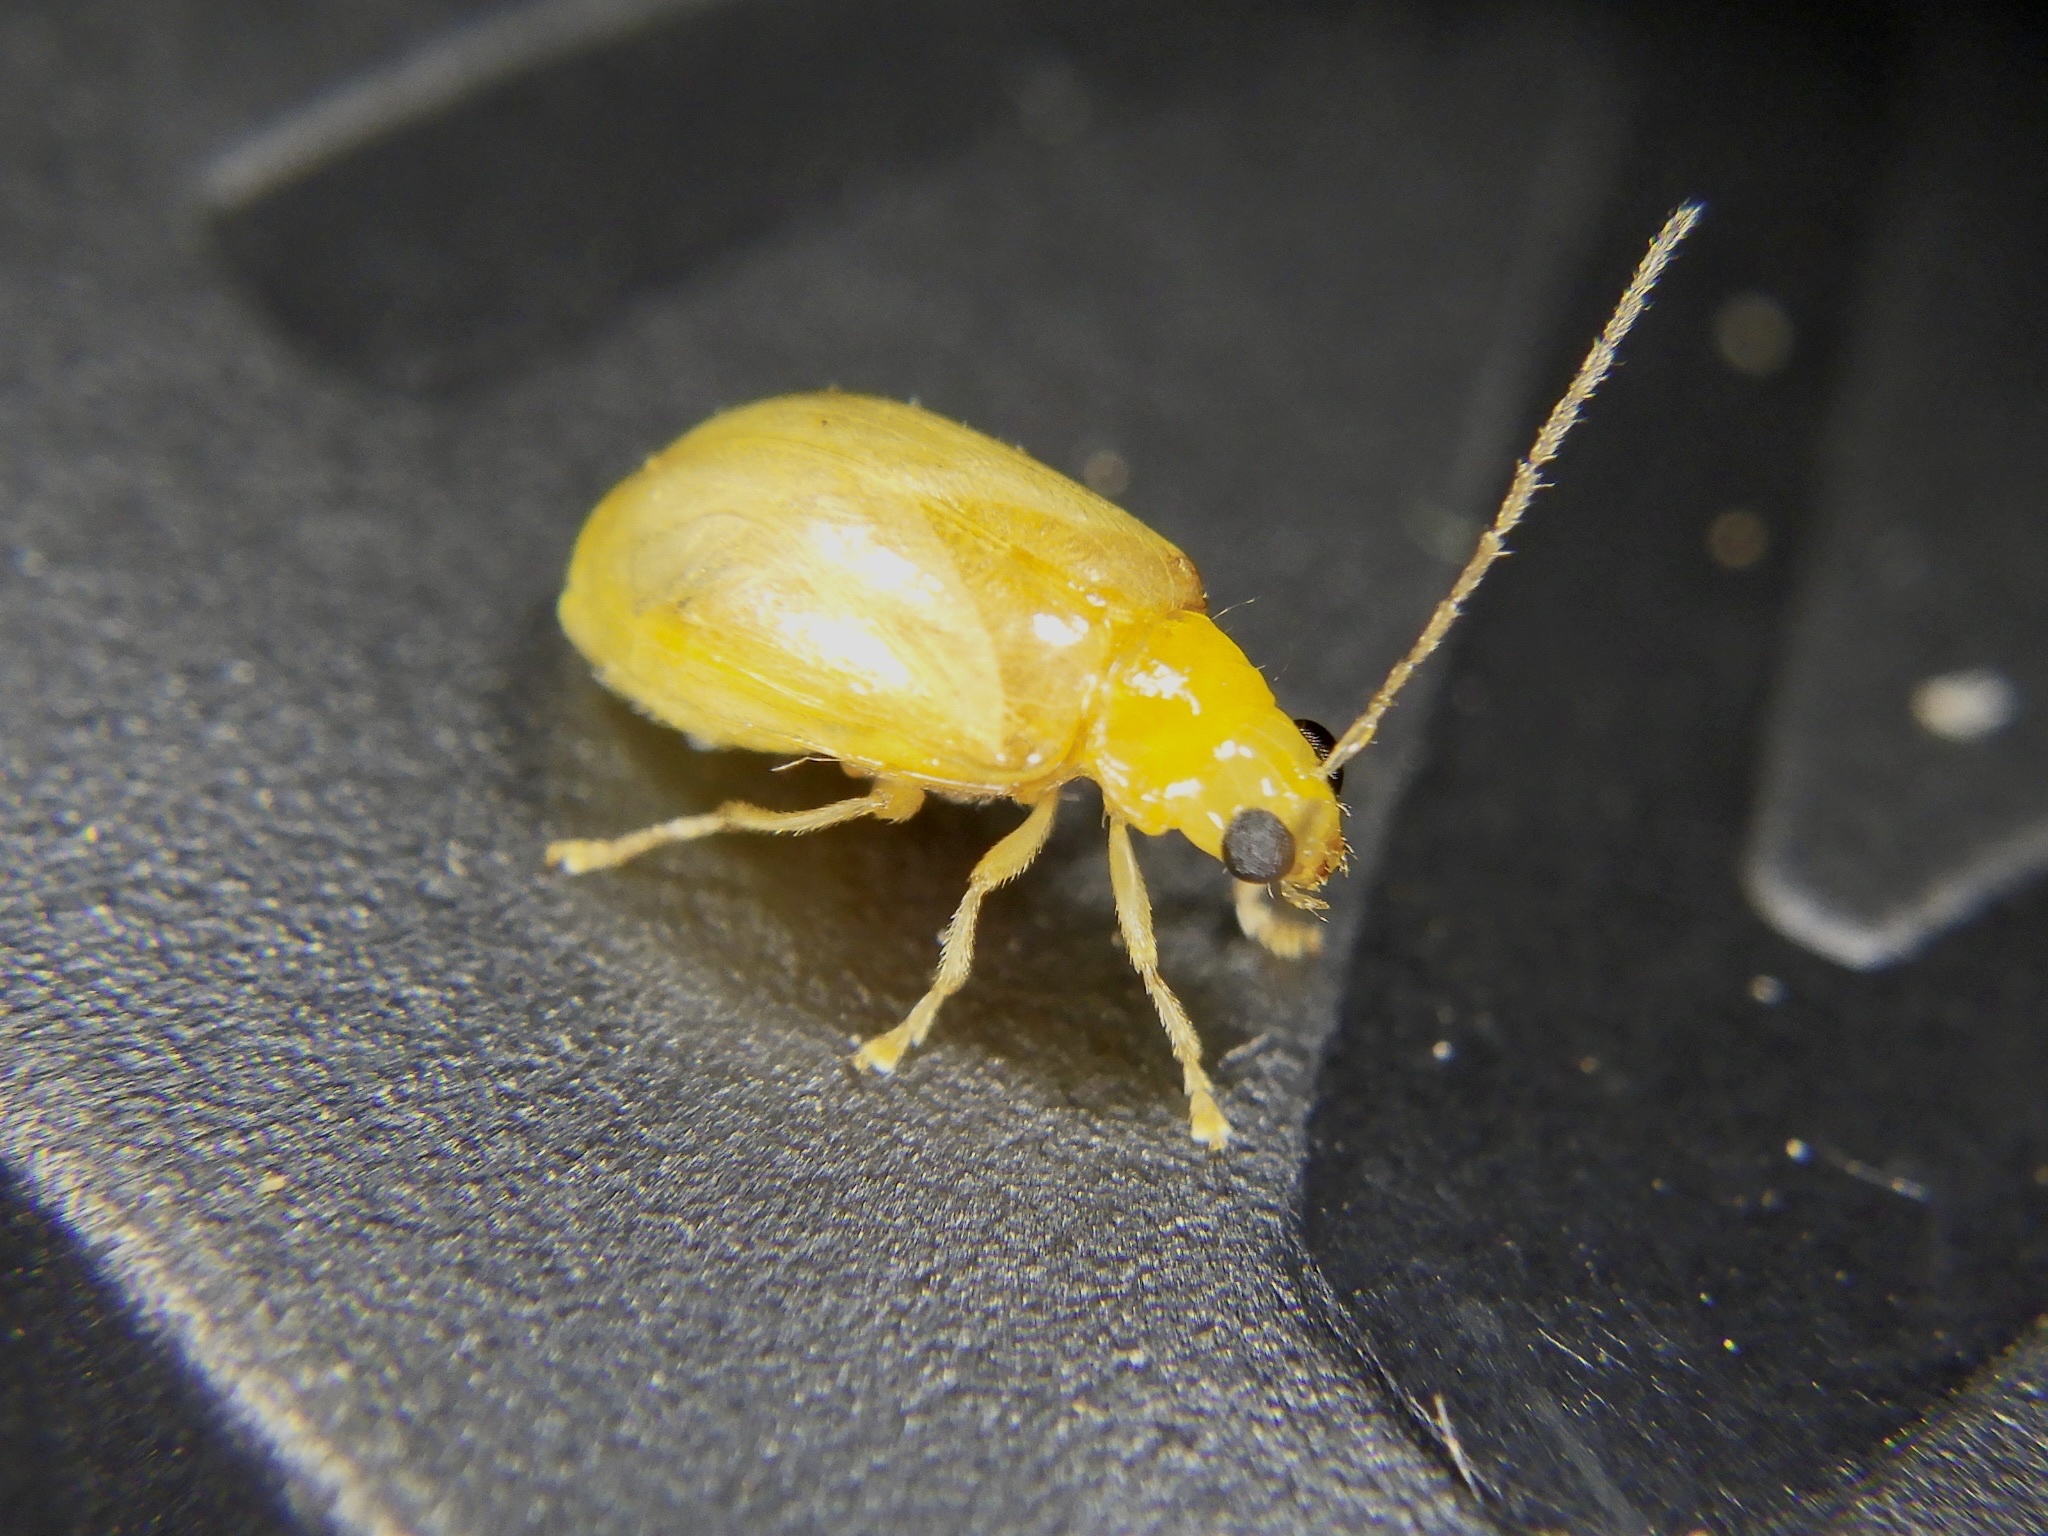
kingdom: Animalia
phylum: Arthropoda
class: Insecta
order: Coleoptera
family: Chrysomelidae
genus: Monolepta
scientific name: Monolepta pallidula
